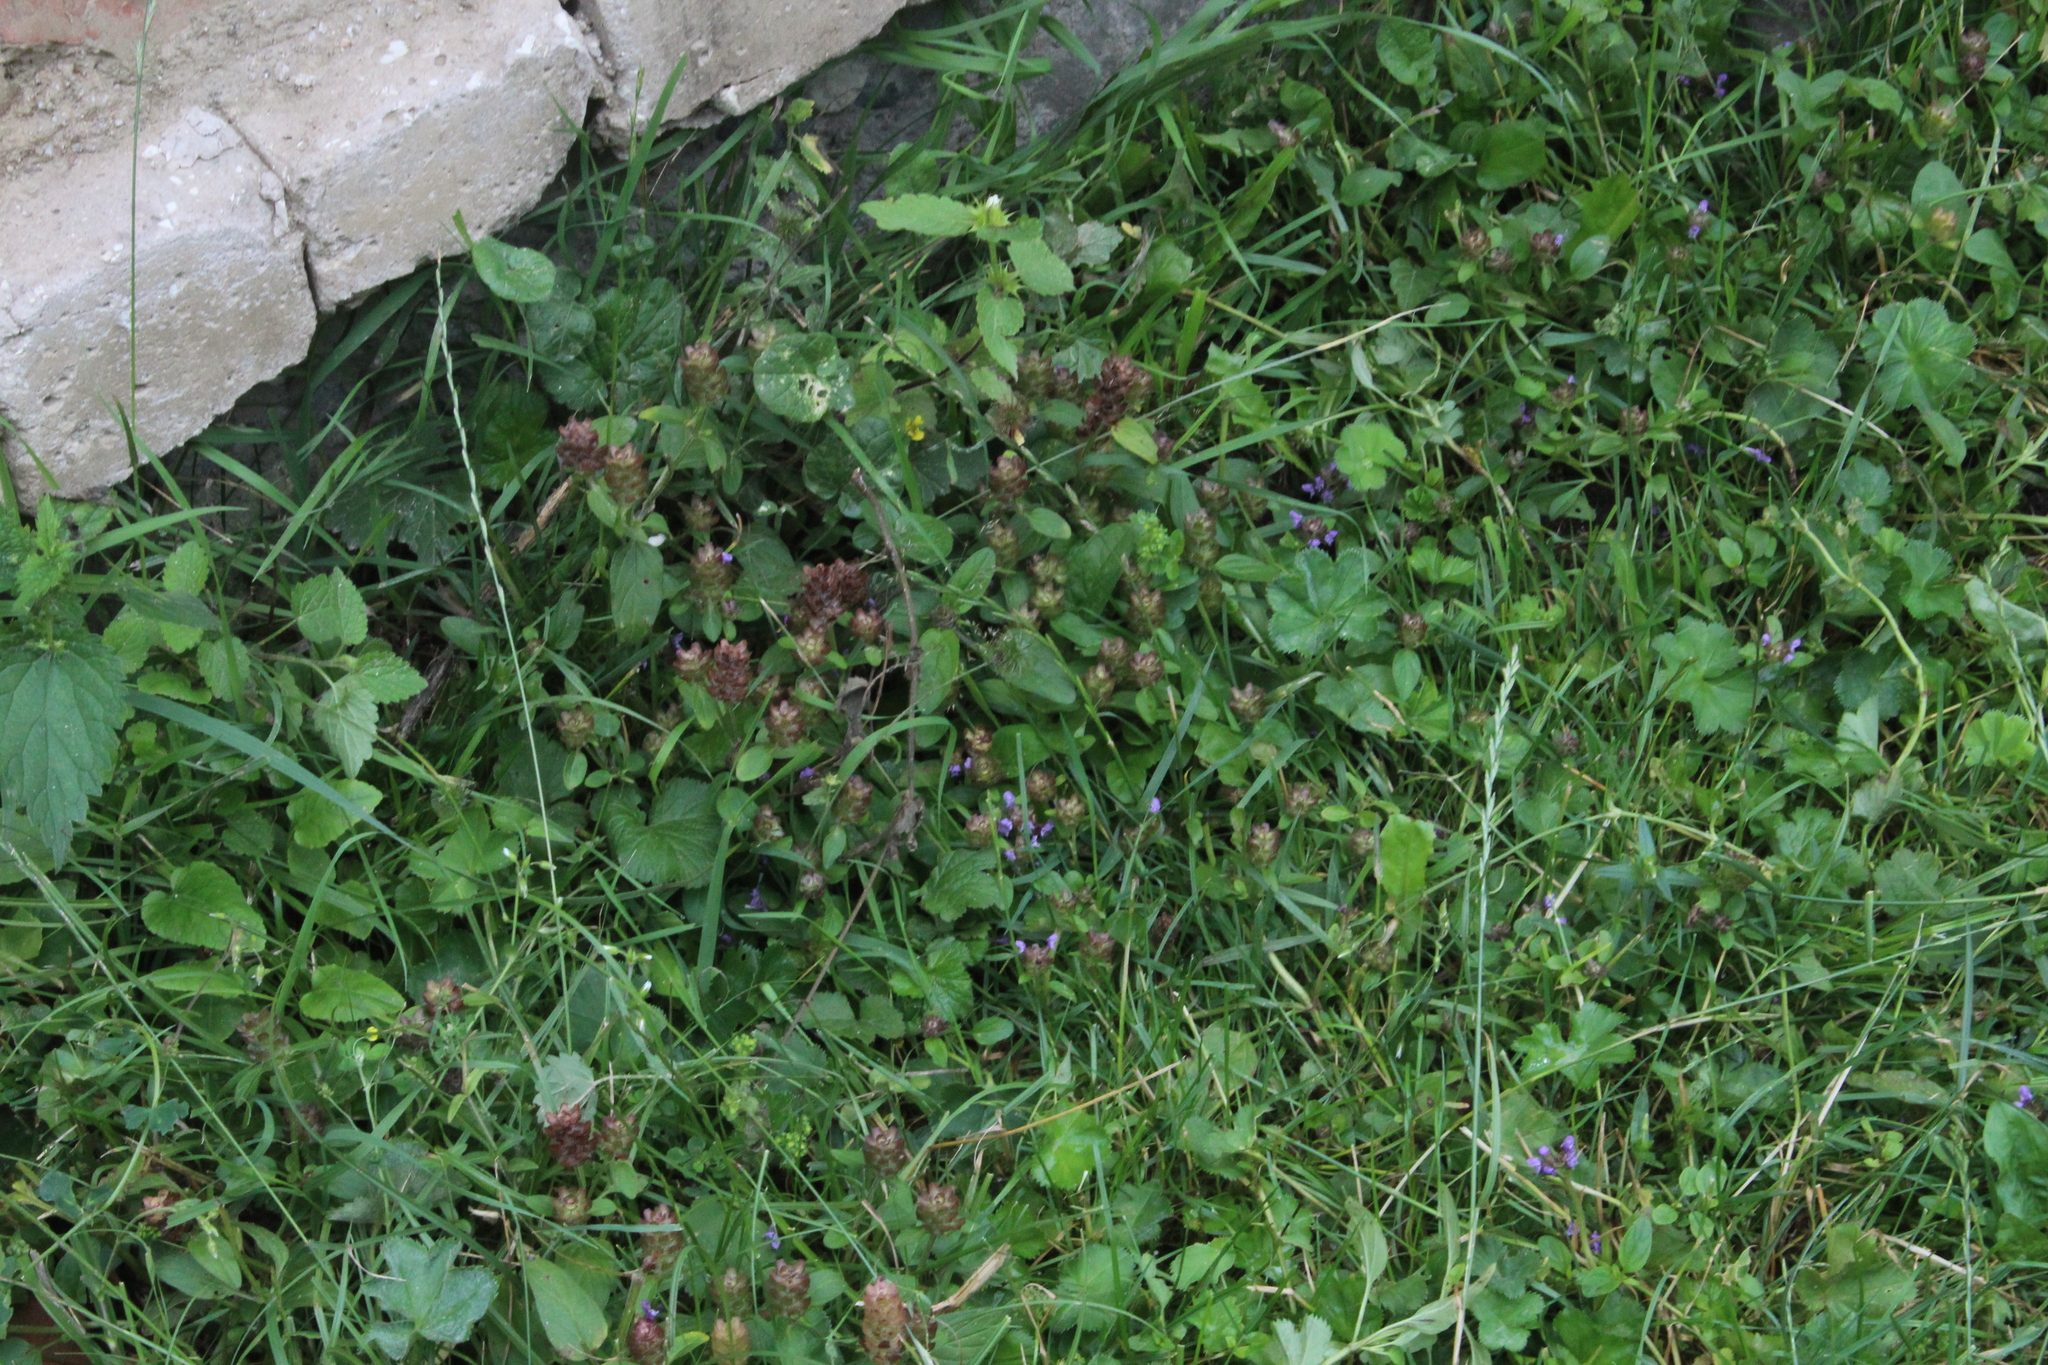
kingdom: Plantae
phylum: Tracheophyta
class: Magnoliopsida
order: Lamiales
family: Lamiaceae
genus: Prunella
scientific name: Prunella vulgaris
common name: Heal-all
